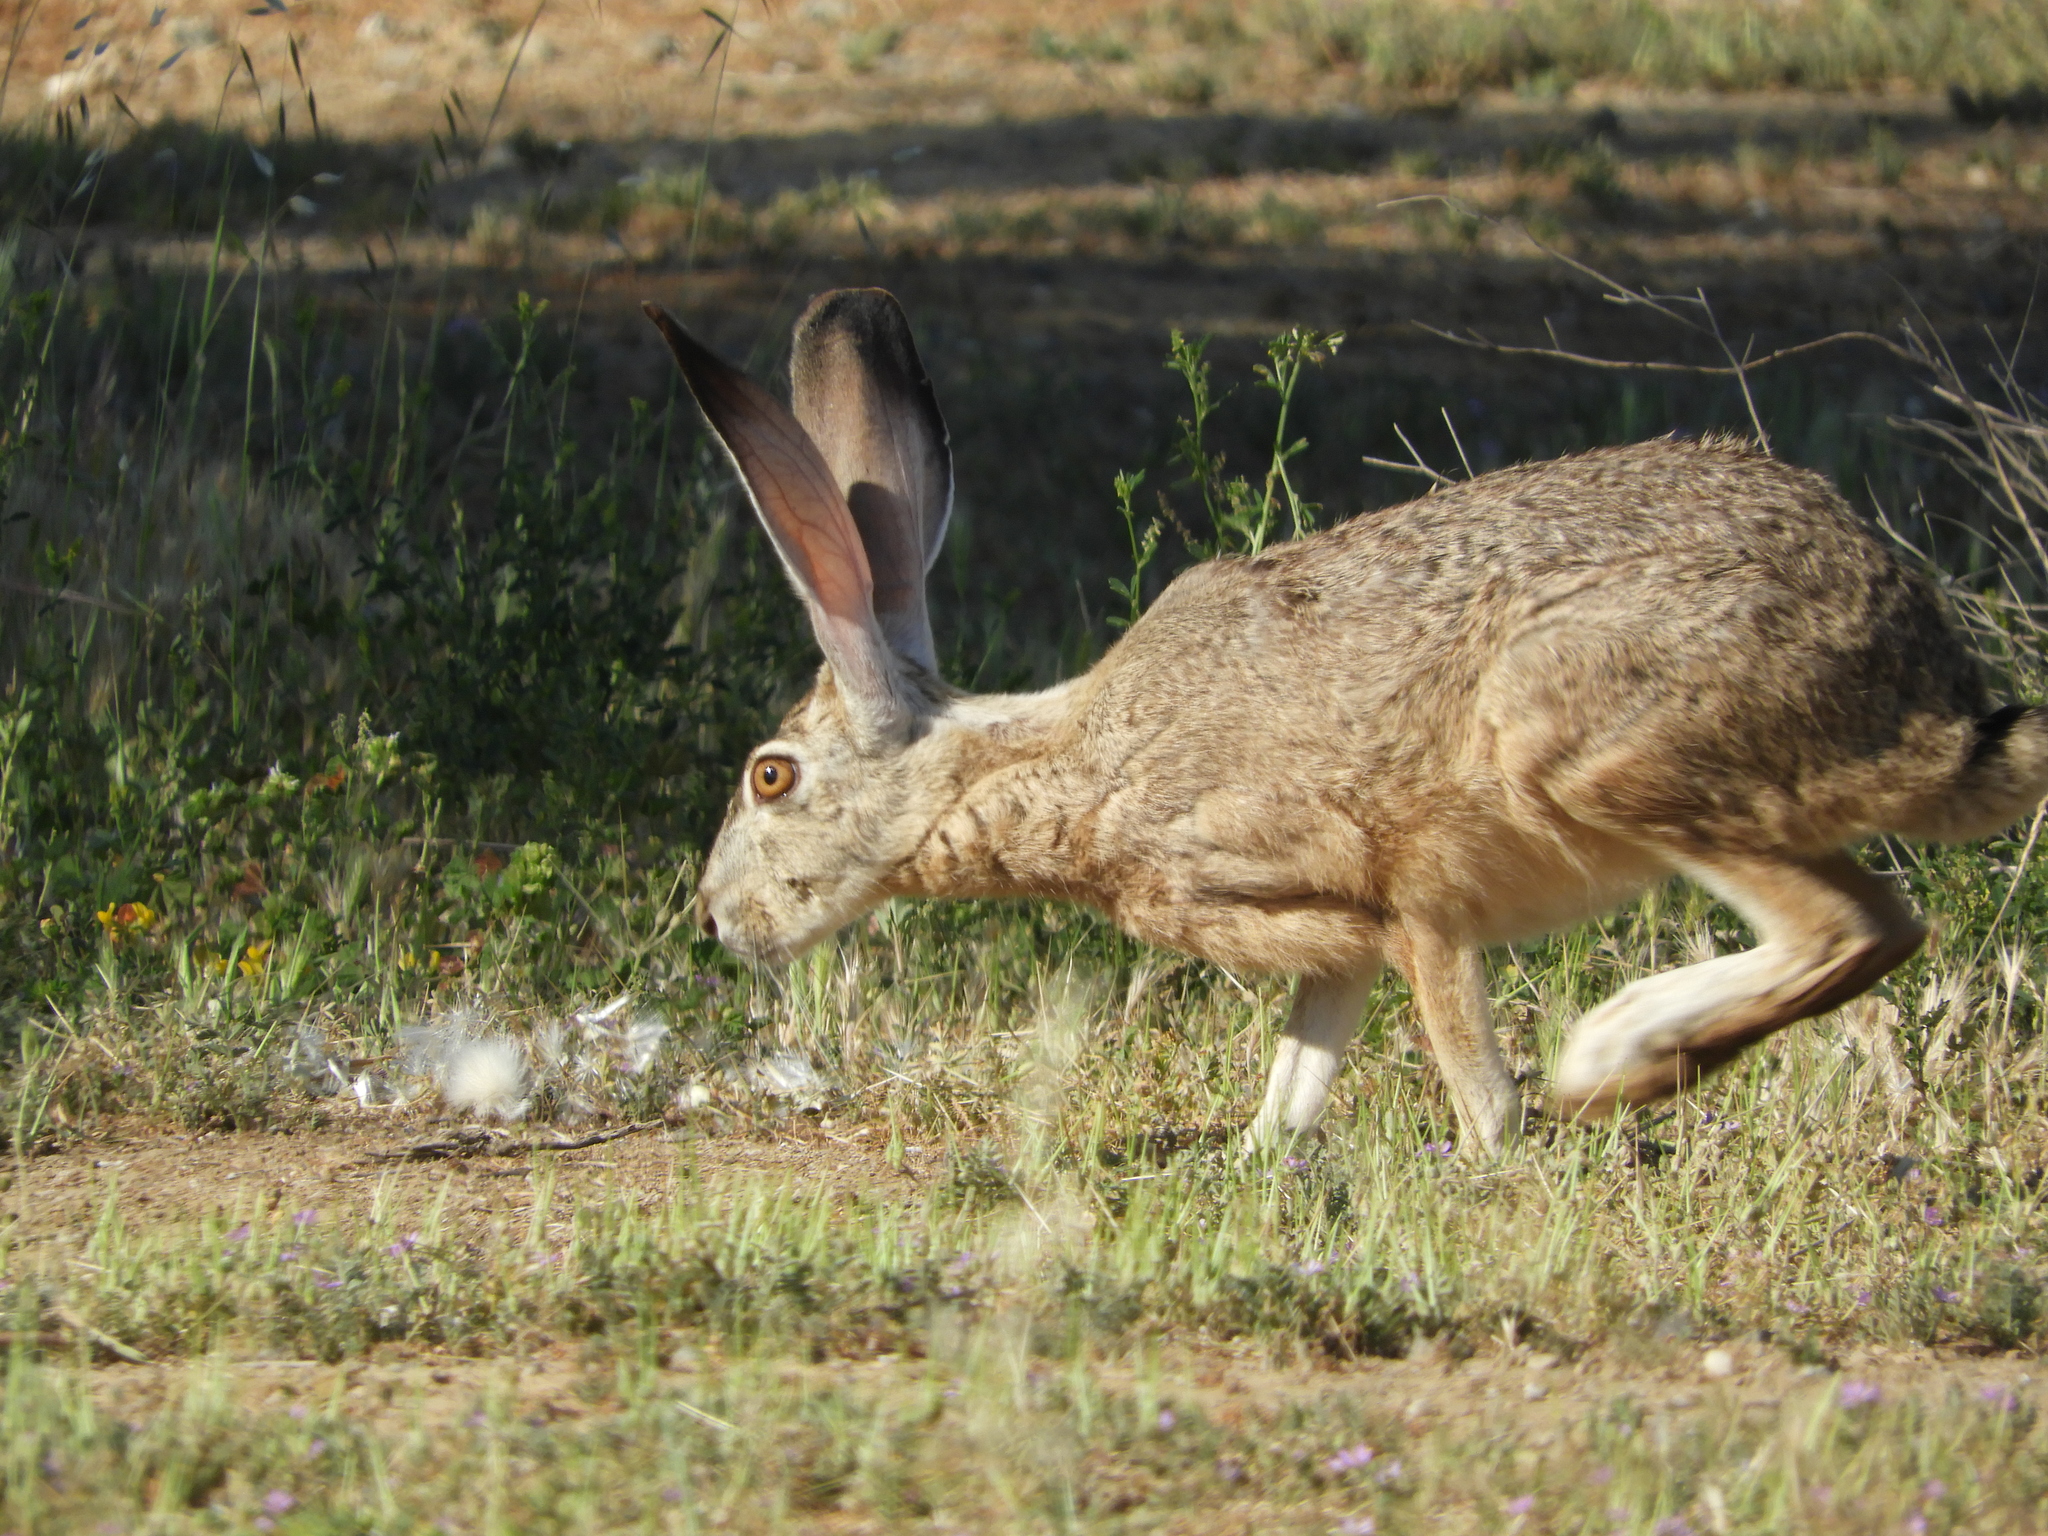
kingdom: Animalia
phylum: Chordata
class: Mammalia
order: Lagomorpha
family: Leporidae
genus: Lepus
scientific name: Lepus californicus
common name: Black-tailed jackrabbit
